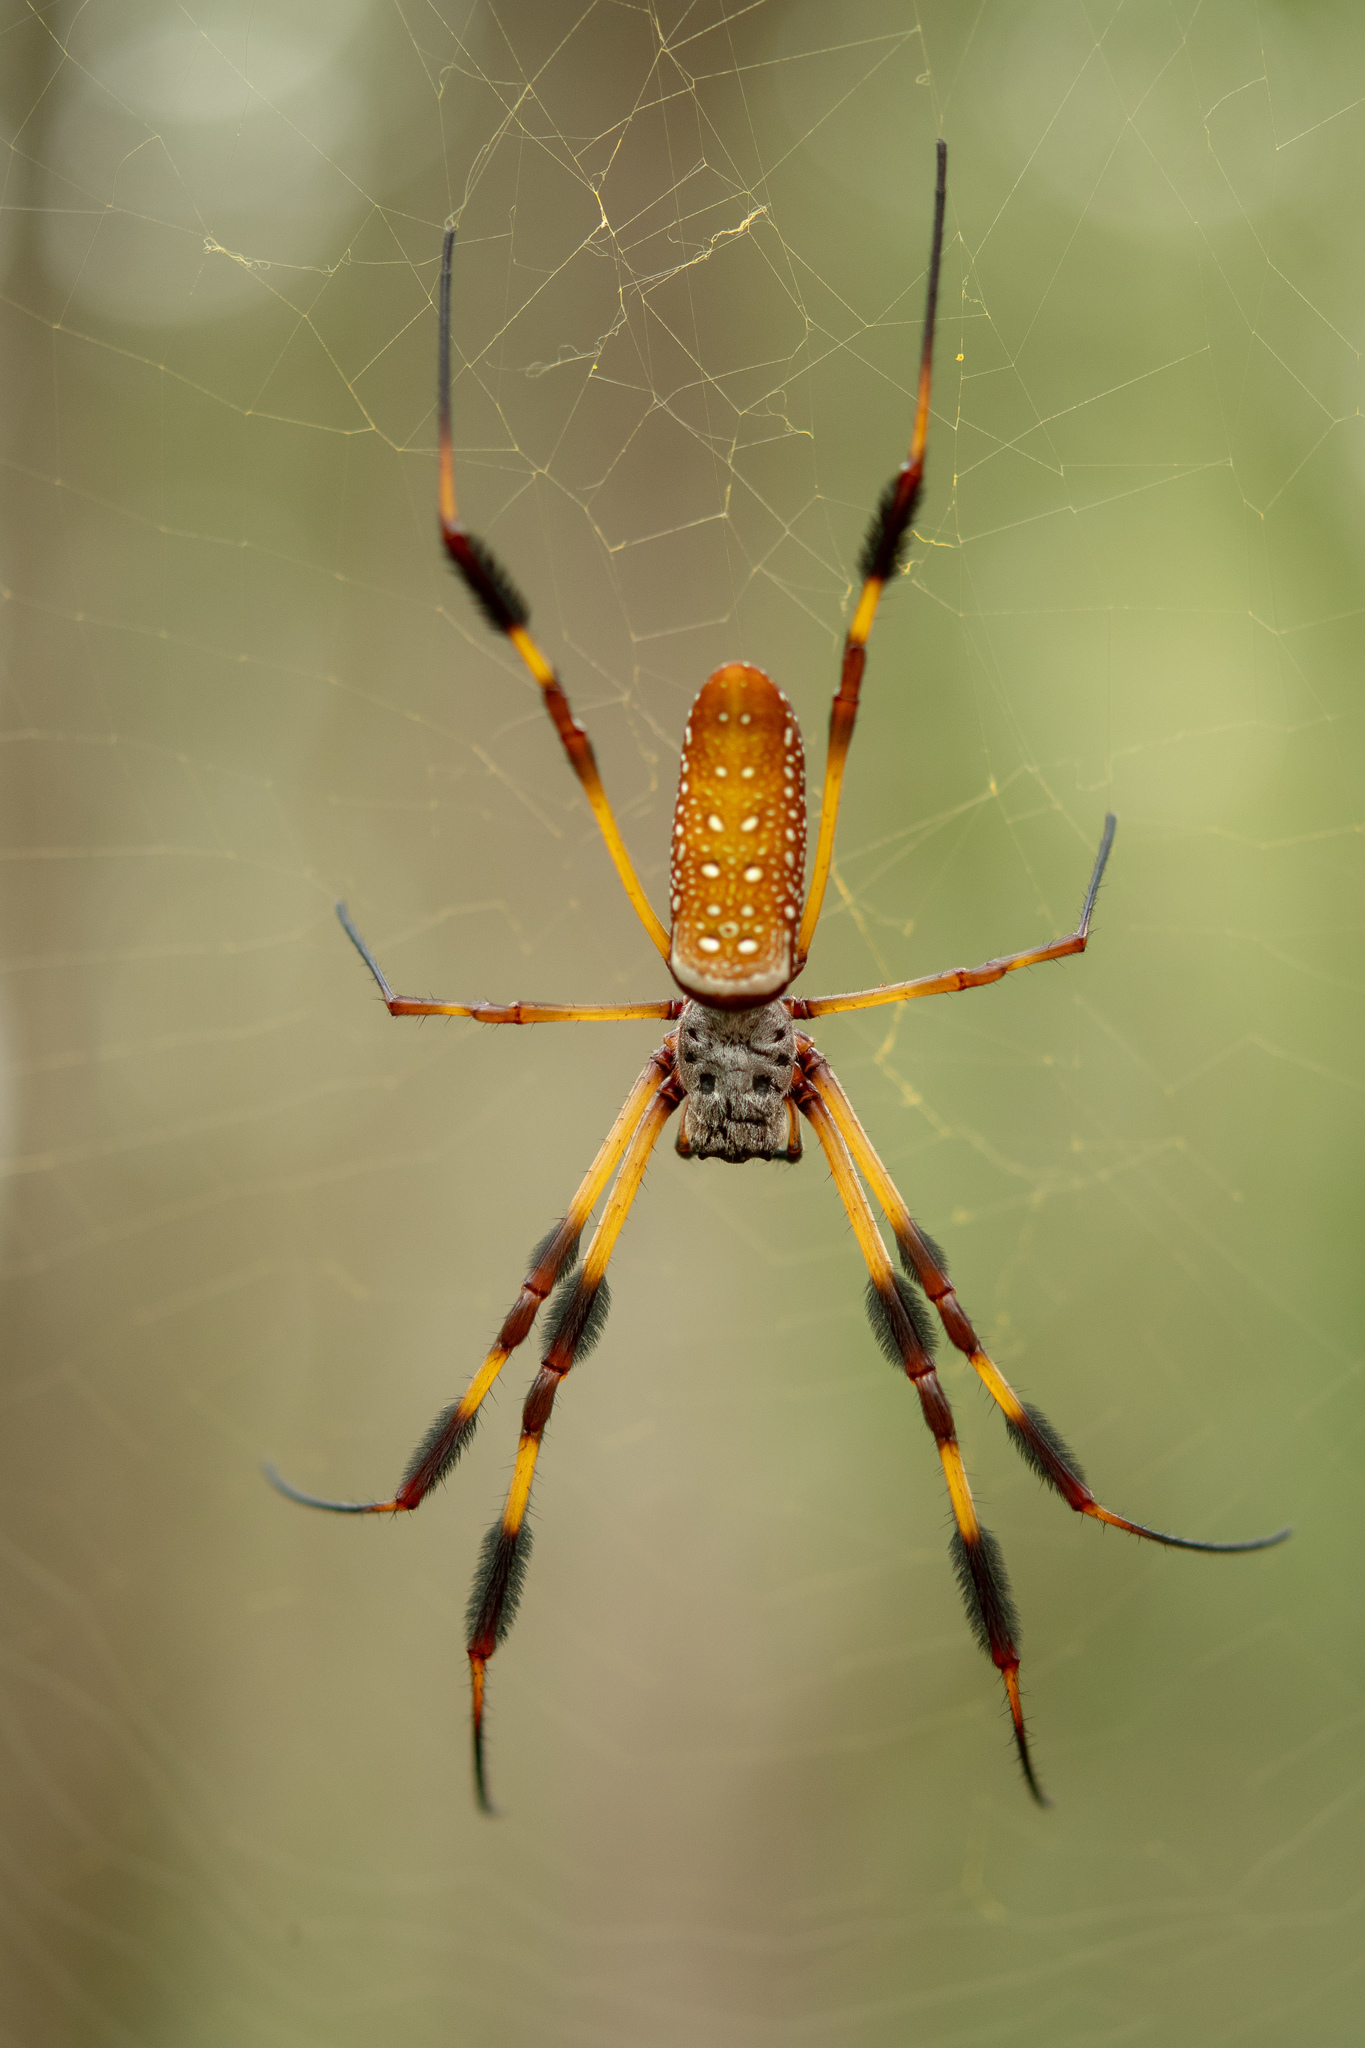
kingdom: Animalia
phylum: Arthropoda
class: Arachnida
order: Araneae
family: Araneidae
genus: Trichonephila
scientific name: Trichonephila clavipes
